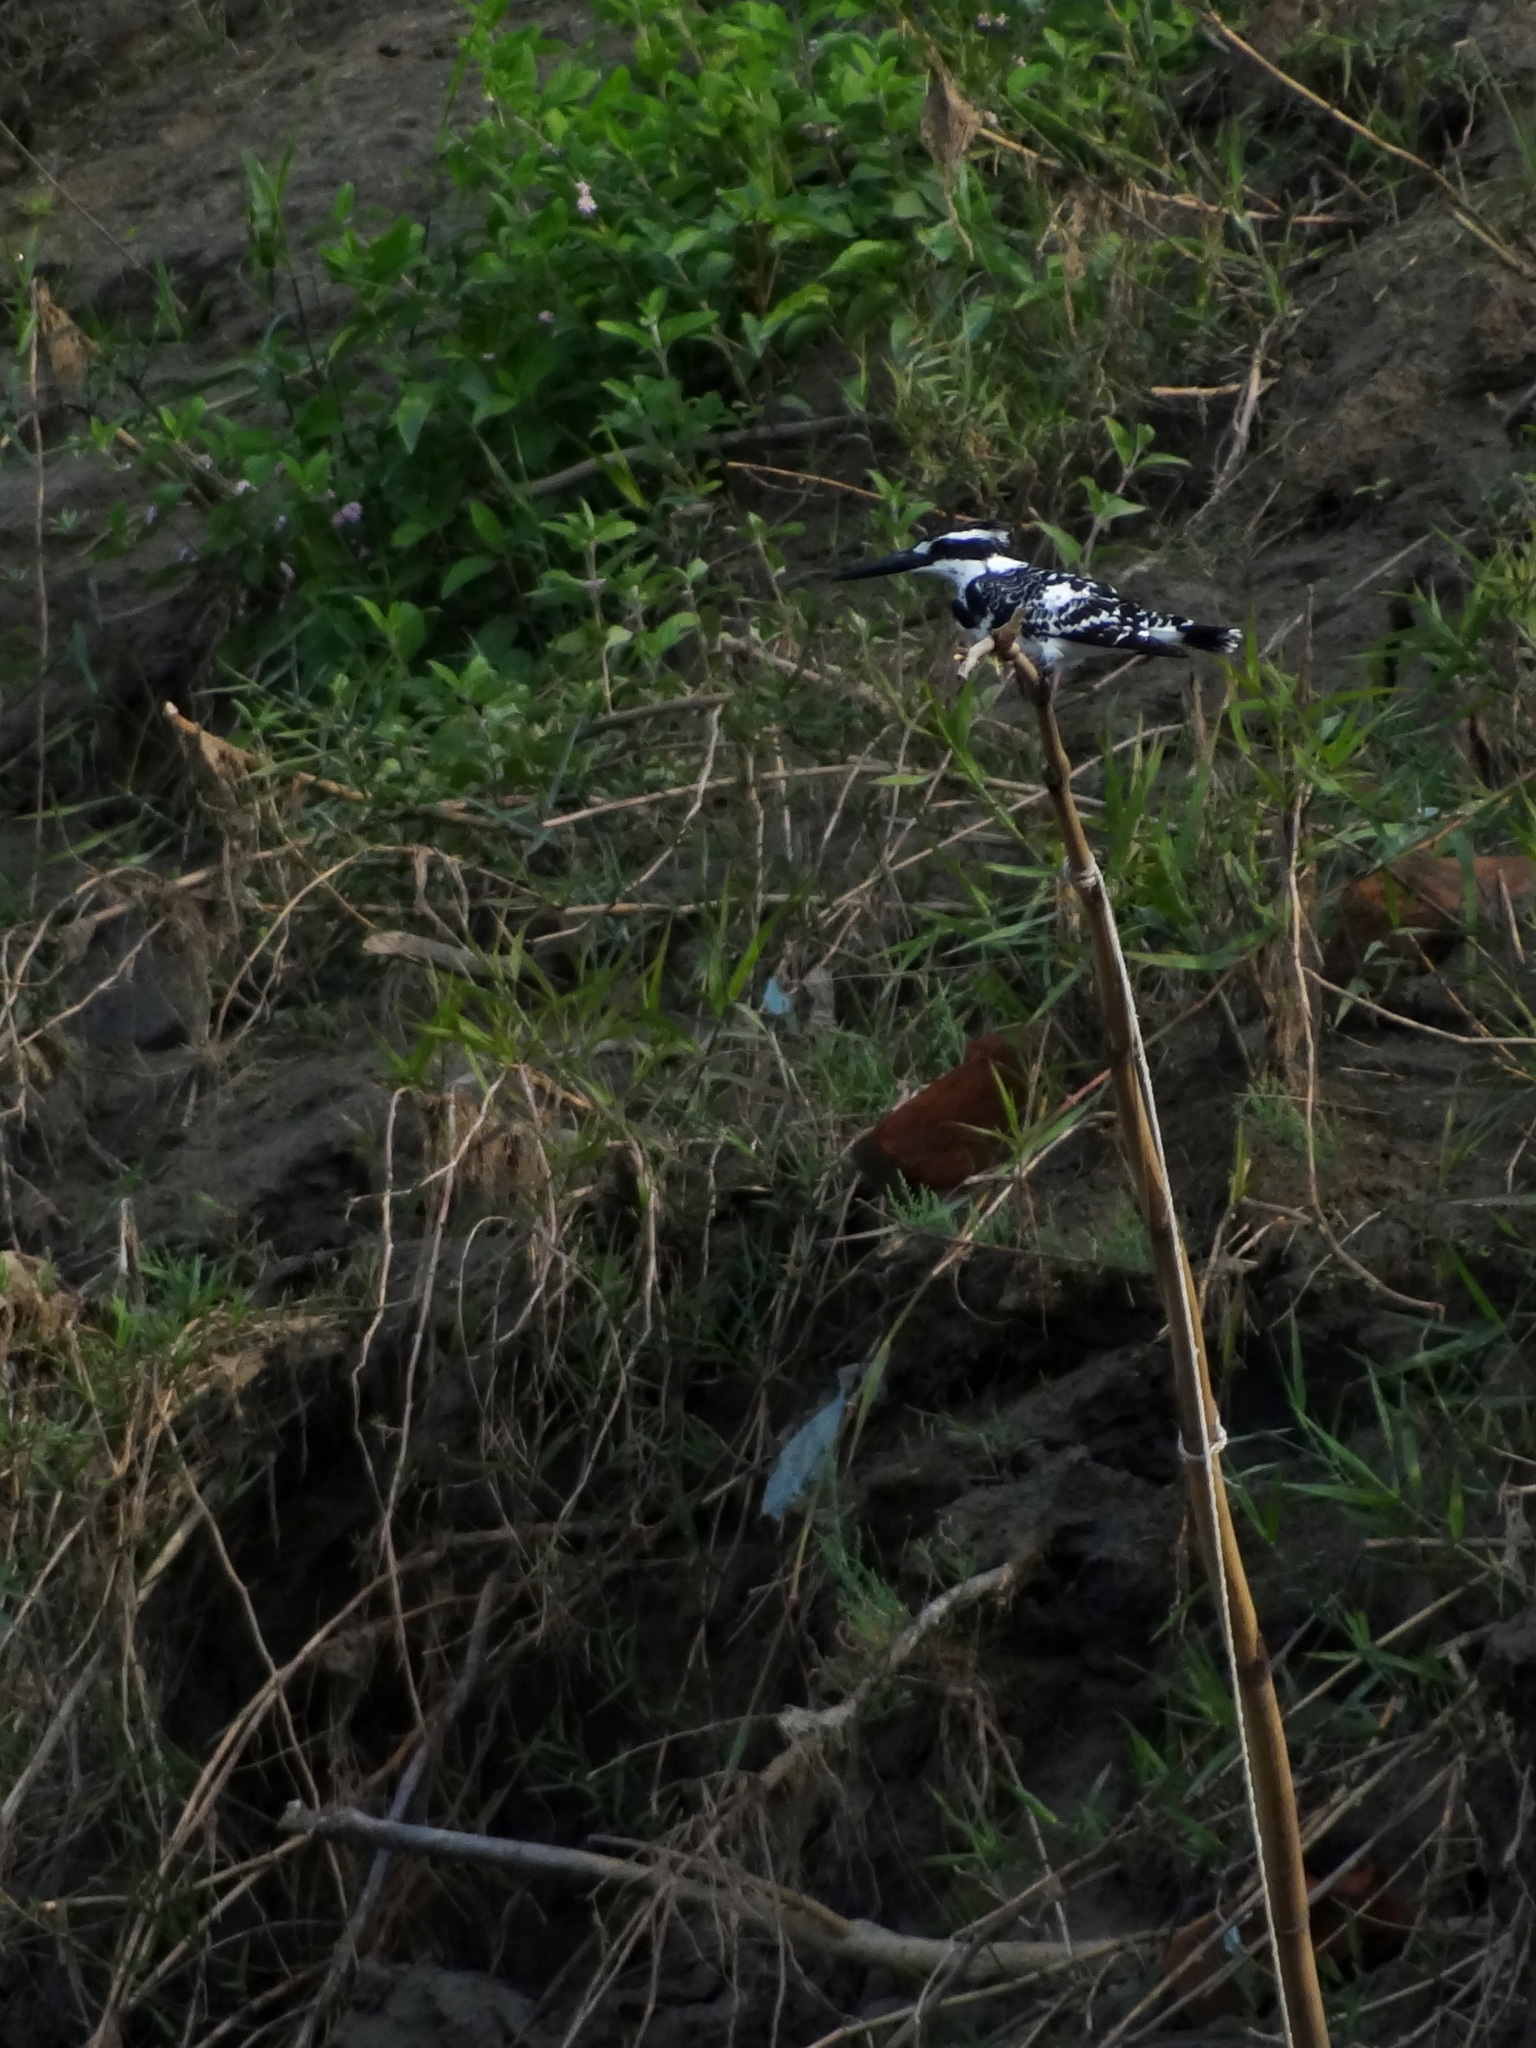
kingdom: Animalia
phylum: Chordata
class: Aves
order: Coraciiformes
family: Alcedinidae
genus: Ceryle
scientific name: Ceryle rudis
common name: Pied kingfisher
